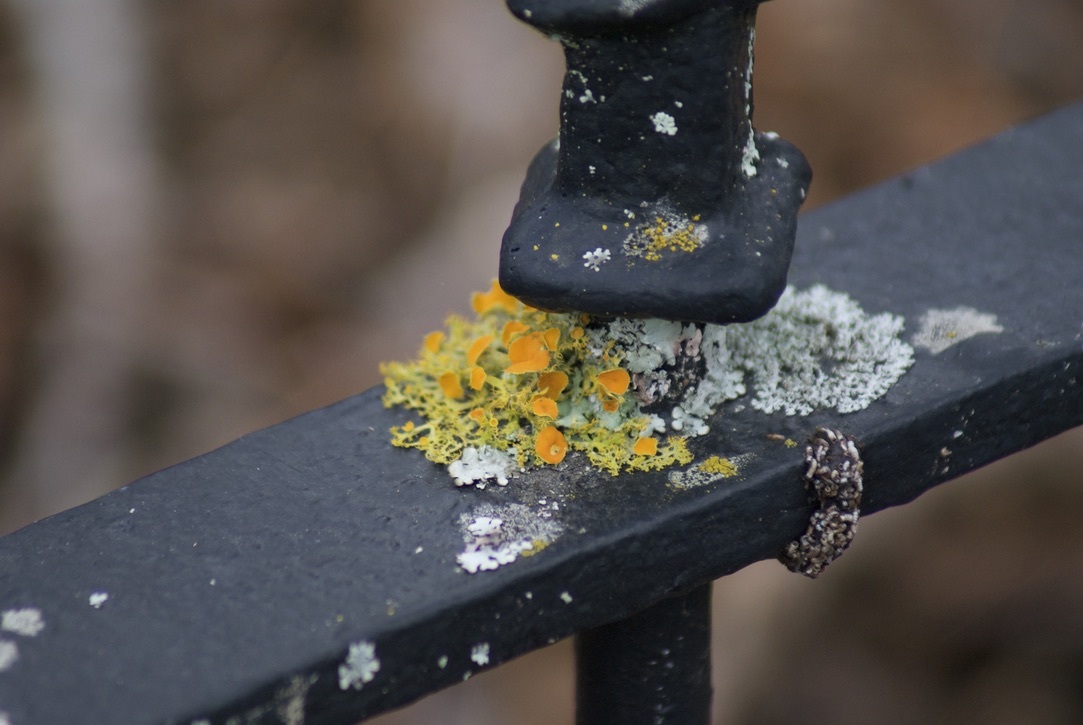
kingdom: Fungi
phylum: Ascomycota
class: Lecanoromycetes
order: Teloschistales
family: Teloschistaceae
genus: Niorma
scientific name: Niorma chrysophthalma
